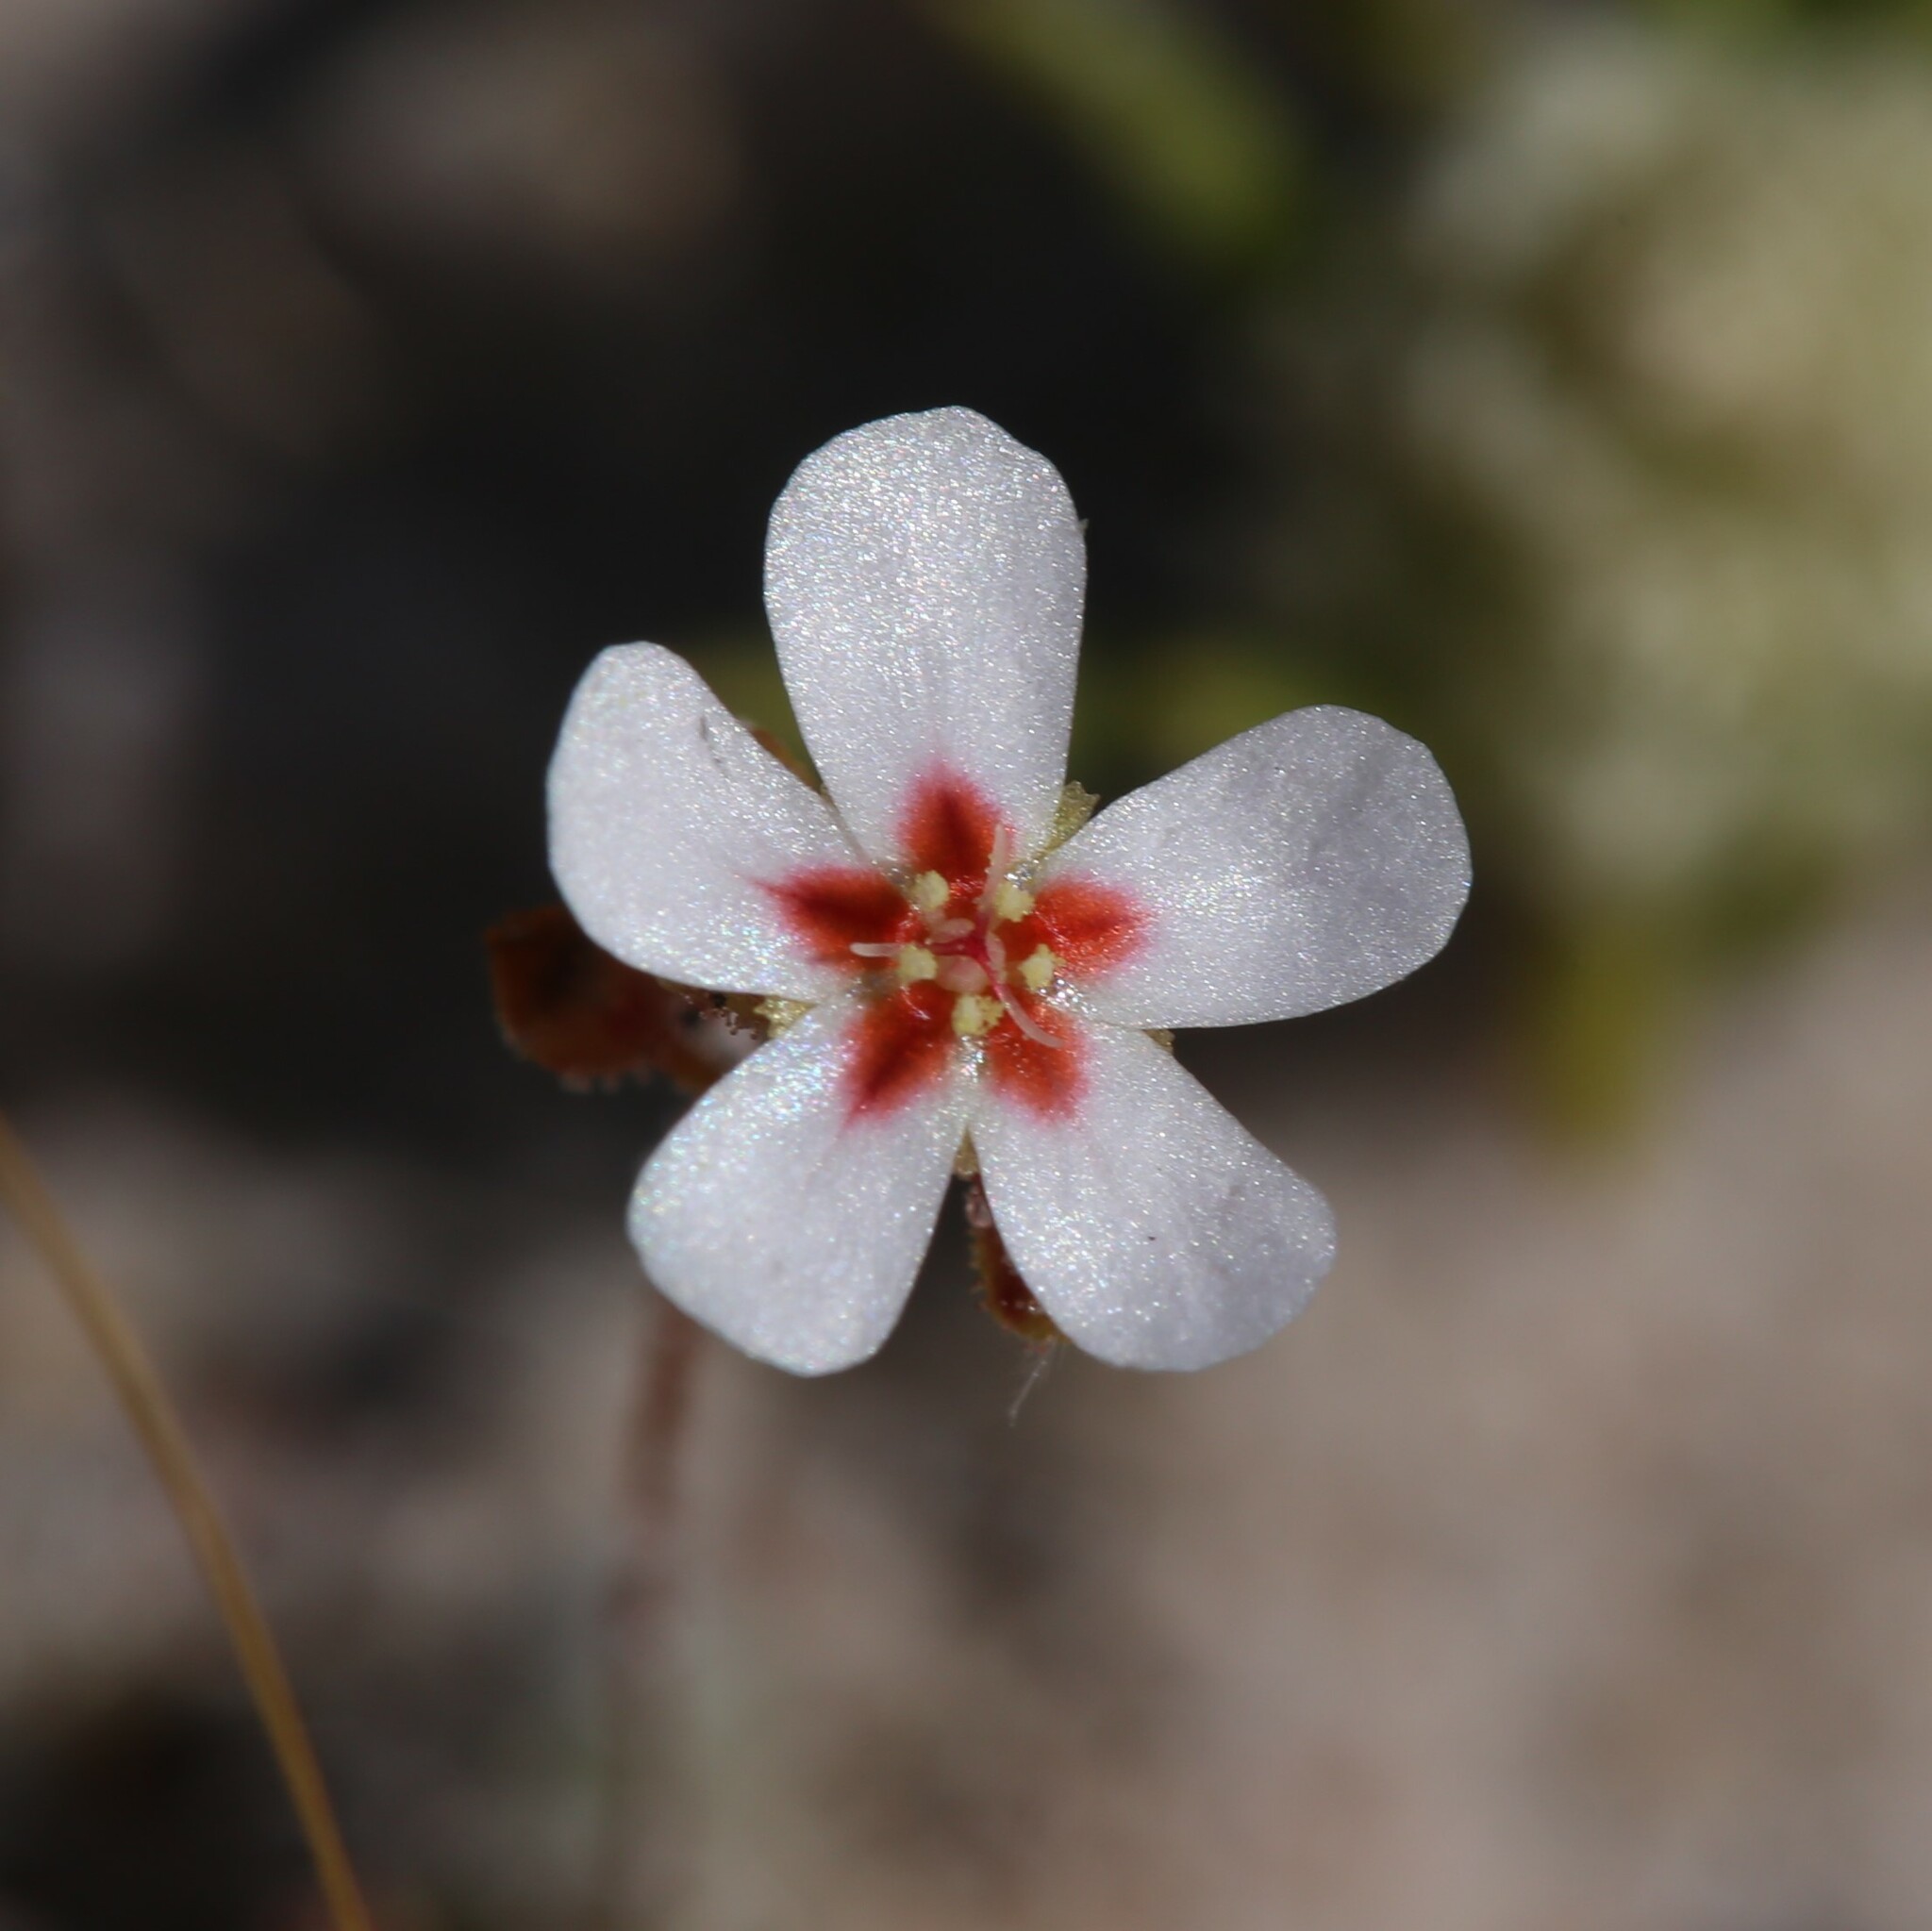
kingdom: Plantae
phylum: Tracheophyta
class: Magnoliopsida
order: Caryophyllales
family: Droseraceae
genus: Drosera
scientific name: Drosera closterostigma
